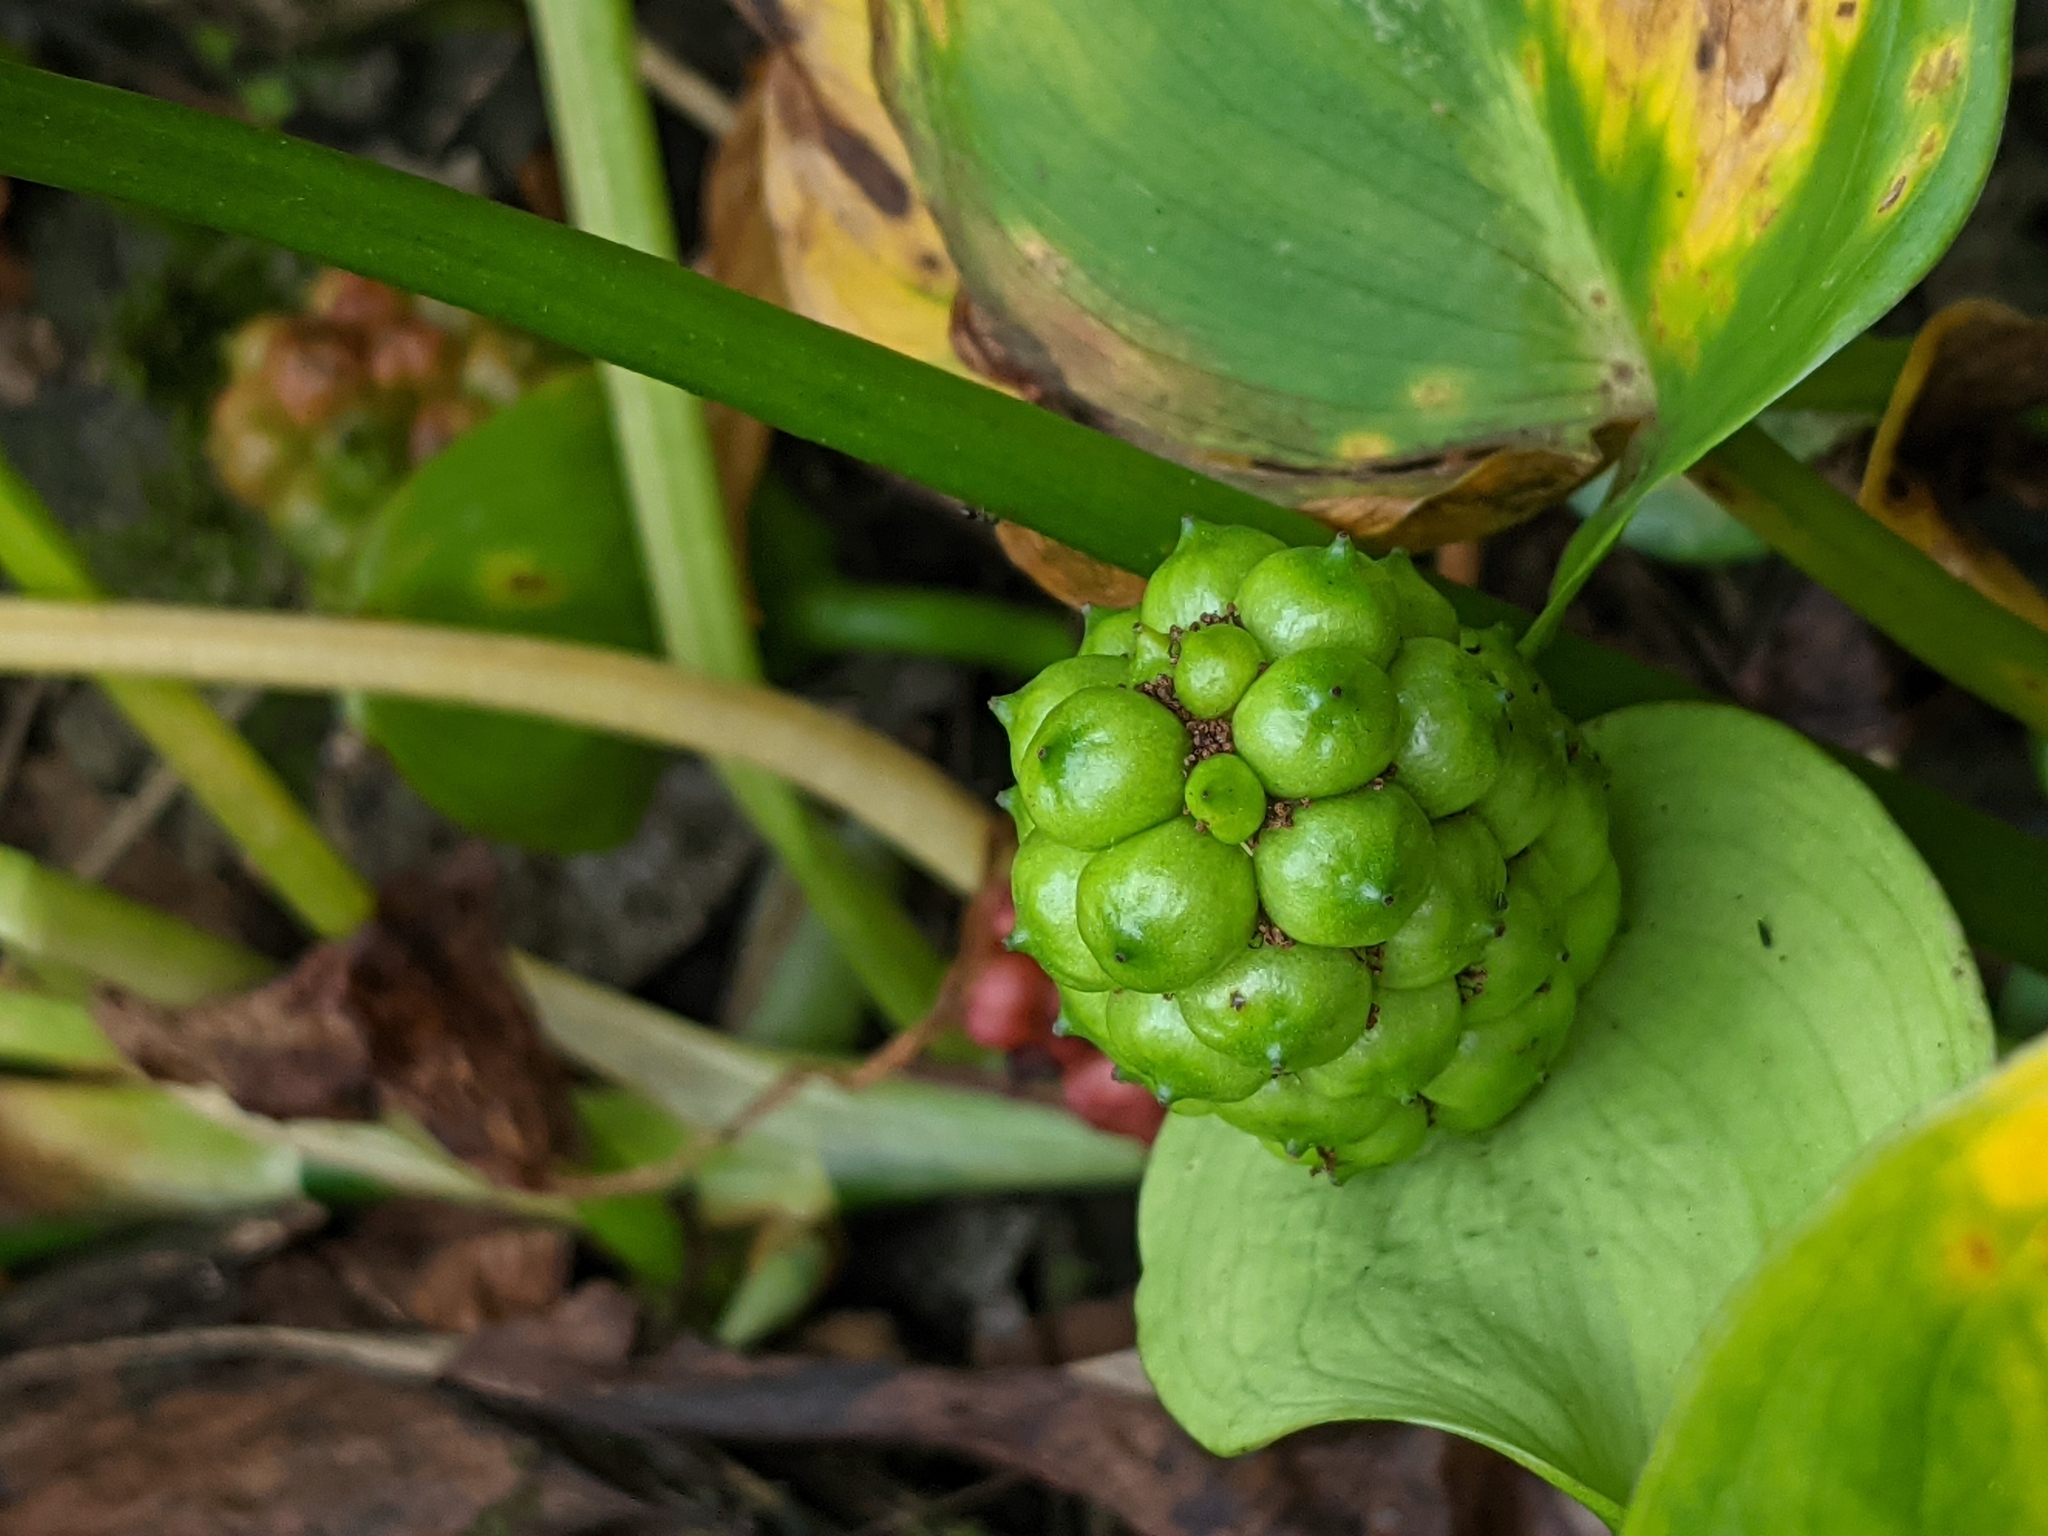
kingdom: Plantae
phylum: Tracheophyta
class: Liliopsida
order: Alismatales
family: Araceae
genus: Calla
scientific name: Calla palustris
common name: Bog arum
